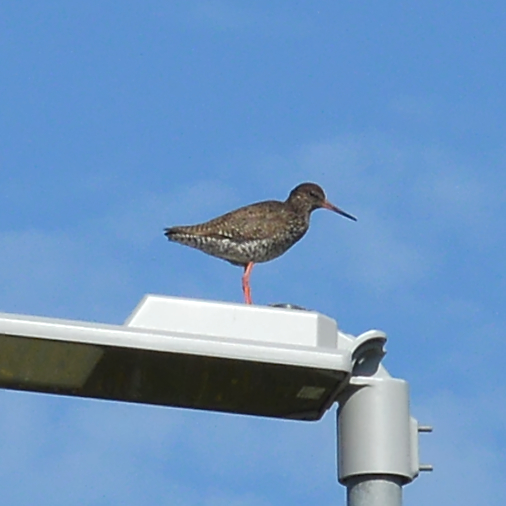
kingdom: Animalia
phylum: Chordata
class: Aves
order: Charadriiformes
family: Scolopacidae
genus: Tringa
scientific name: Tringa totanus
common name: Common redshank
